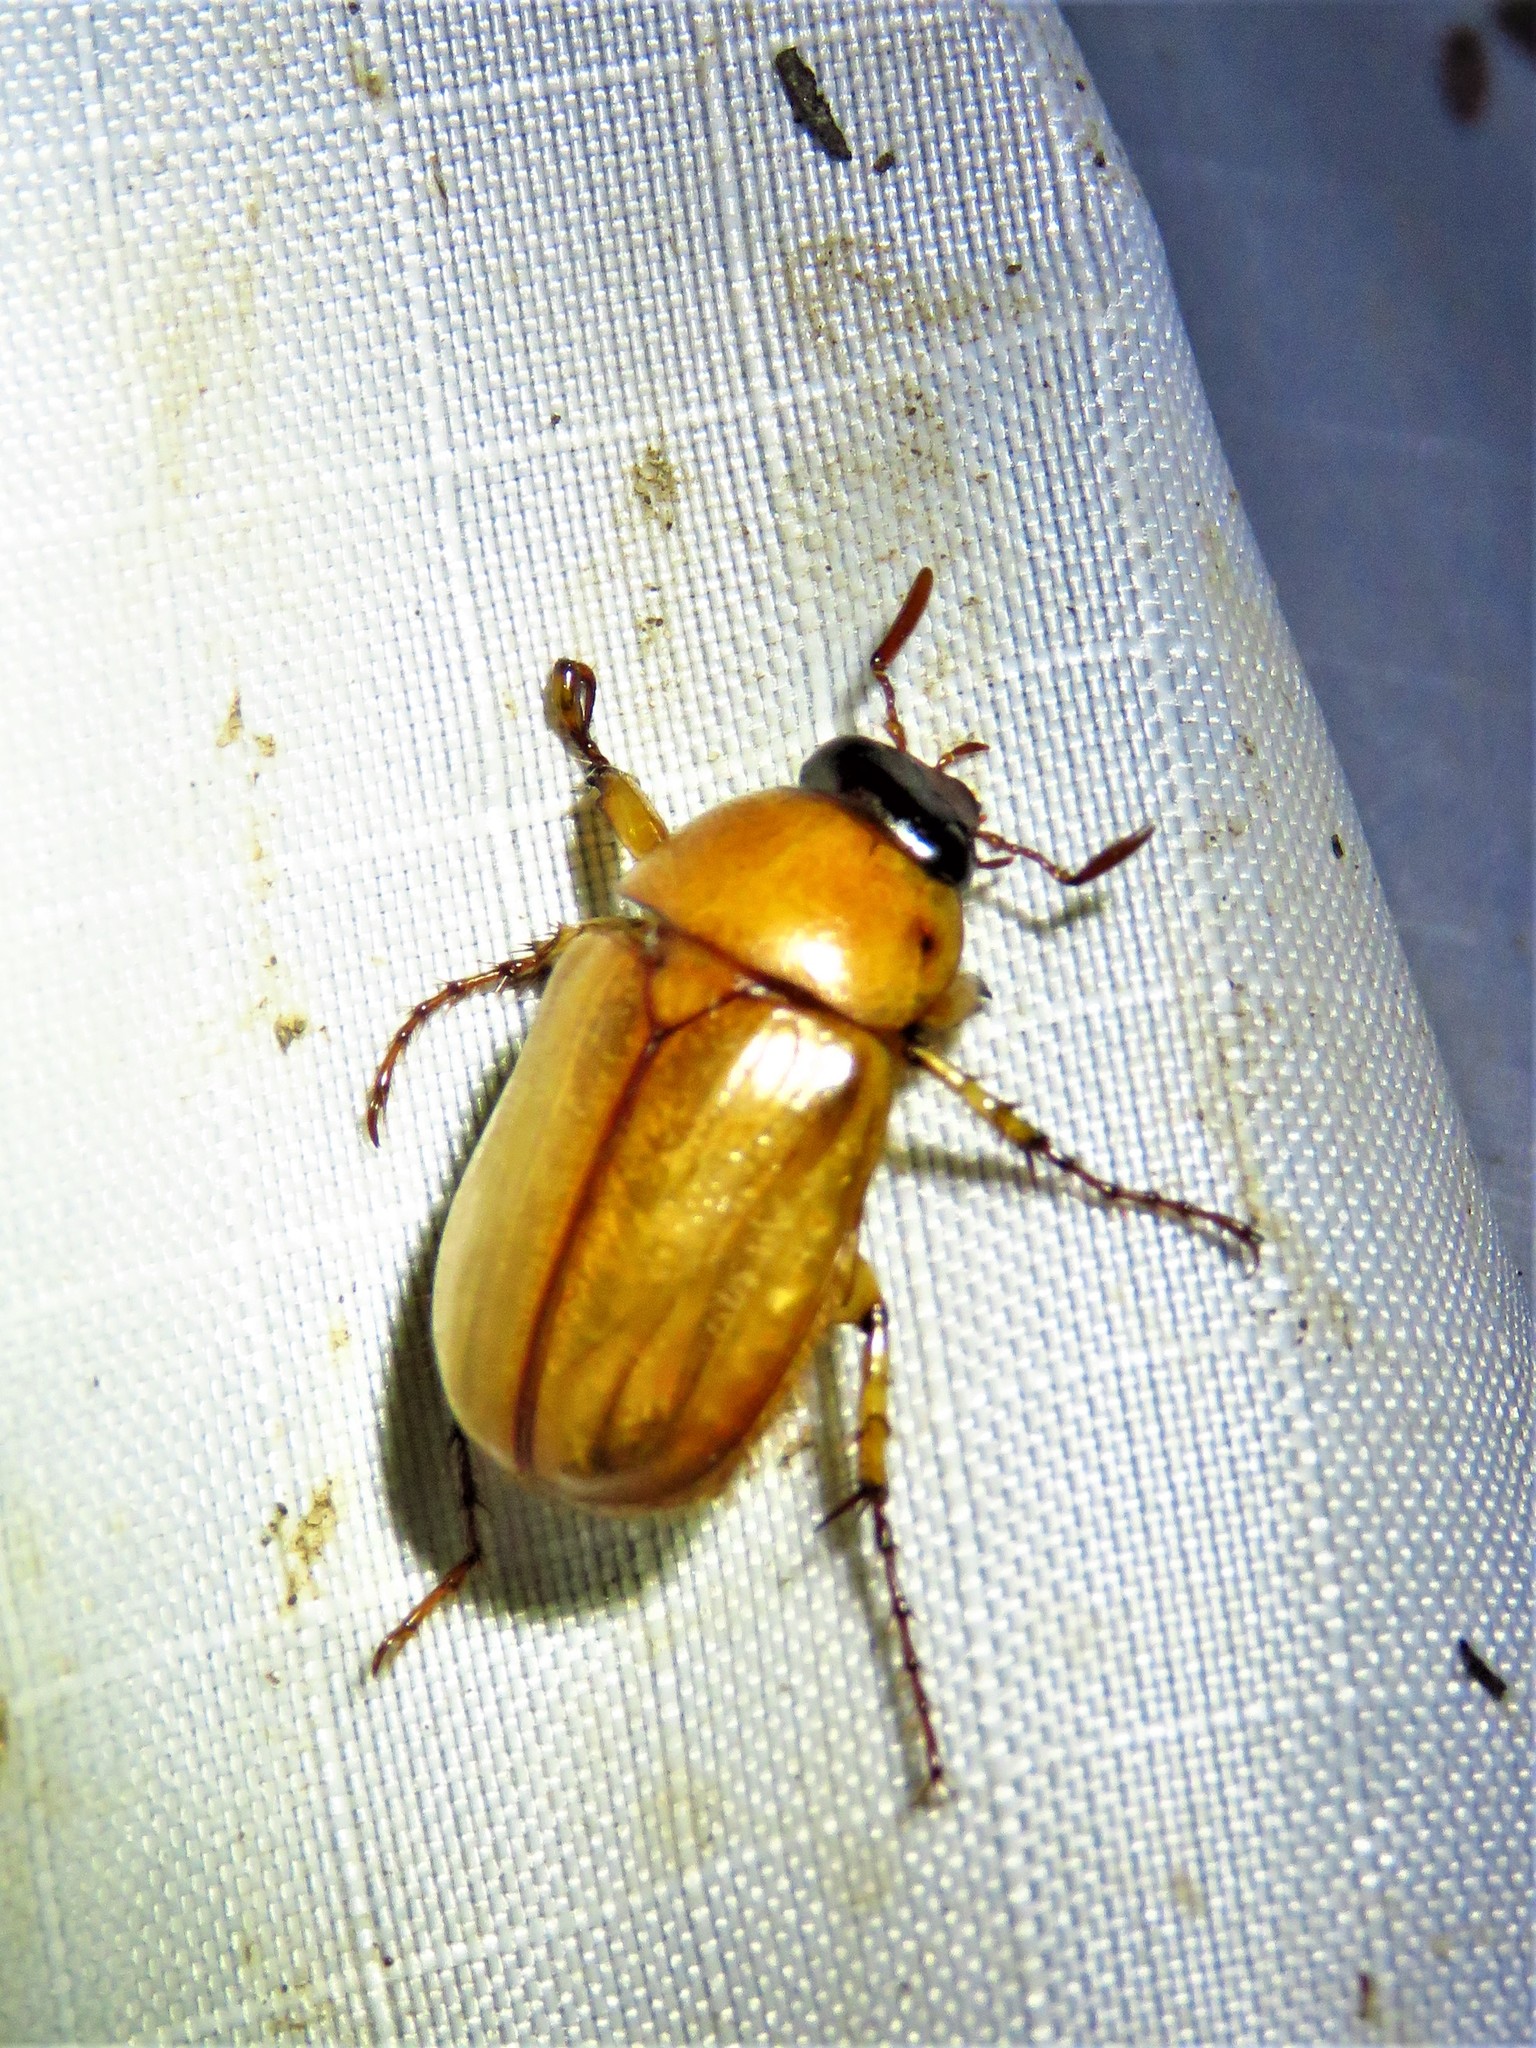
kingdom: Animalia
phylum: Arthropoda
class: Insecta
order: Coleoptera
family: Scarabaeidae
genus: Cyclocephala
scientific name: Cyclocephala lurida
